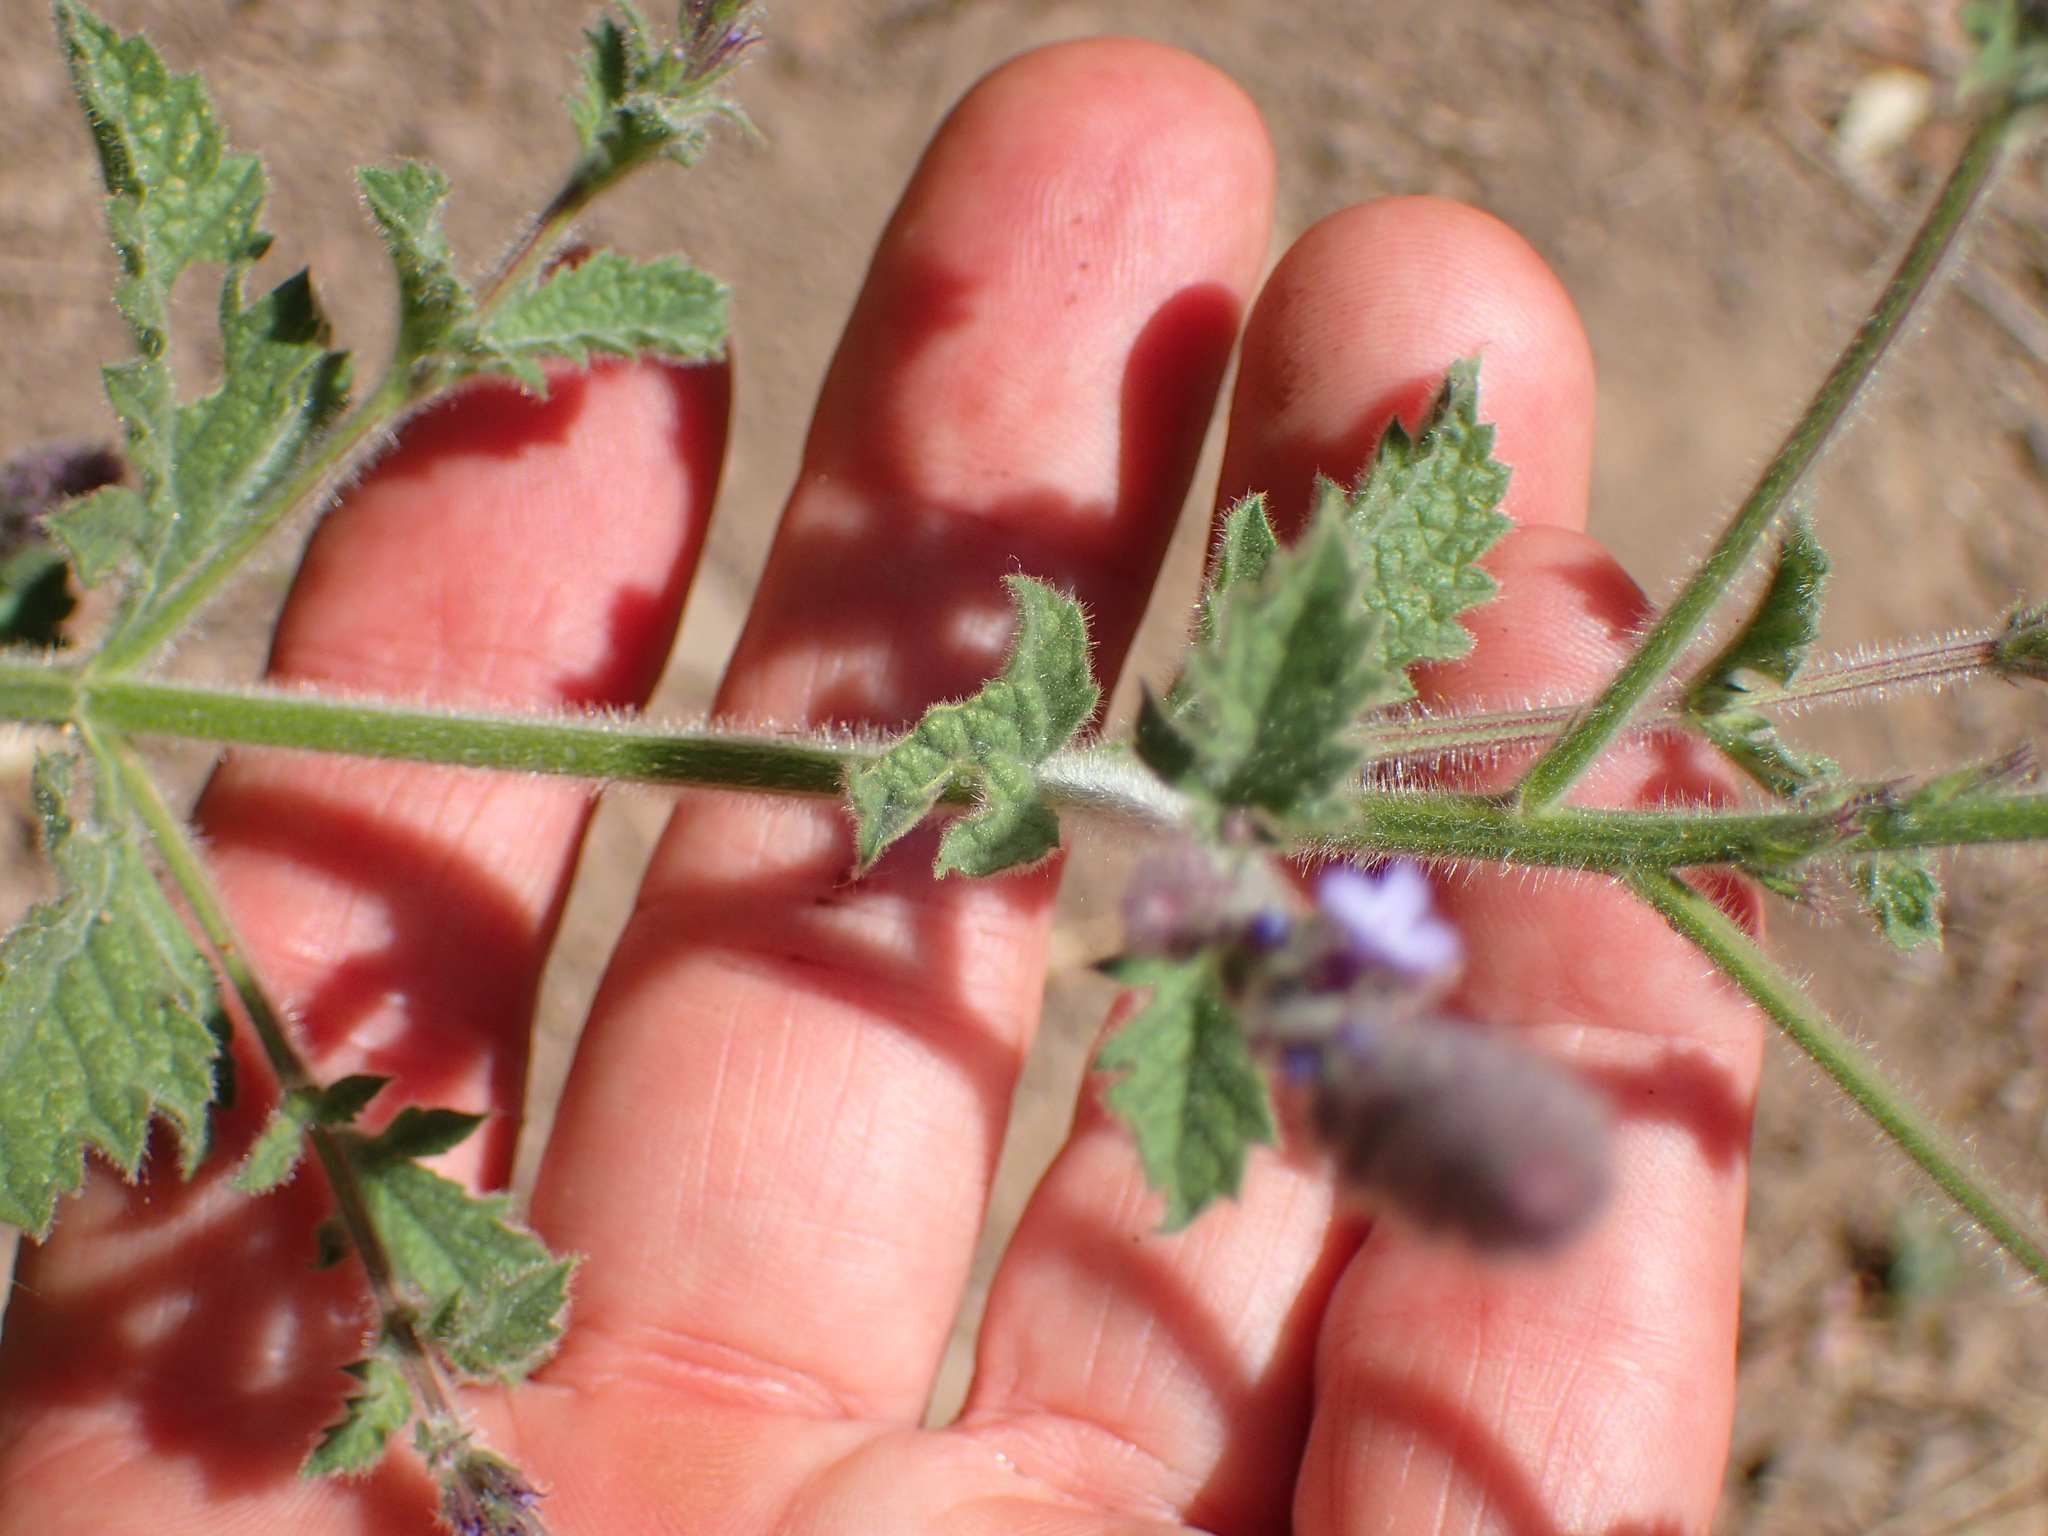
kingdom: Plantae
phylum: Tracheophyta
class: Magnoliopsida
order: Lamiales
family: Verbenaceae
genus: Verbena
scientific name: Verbena lasiostachys
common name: Vervain
